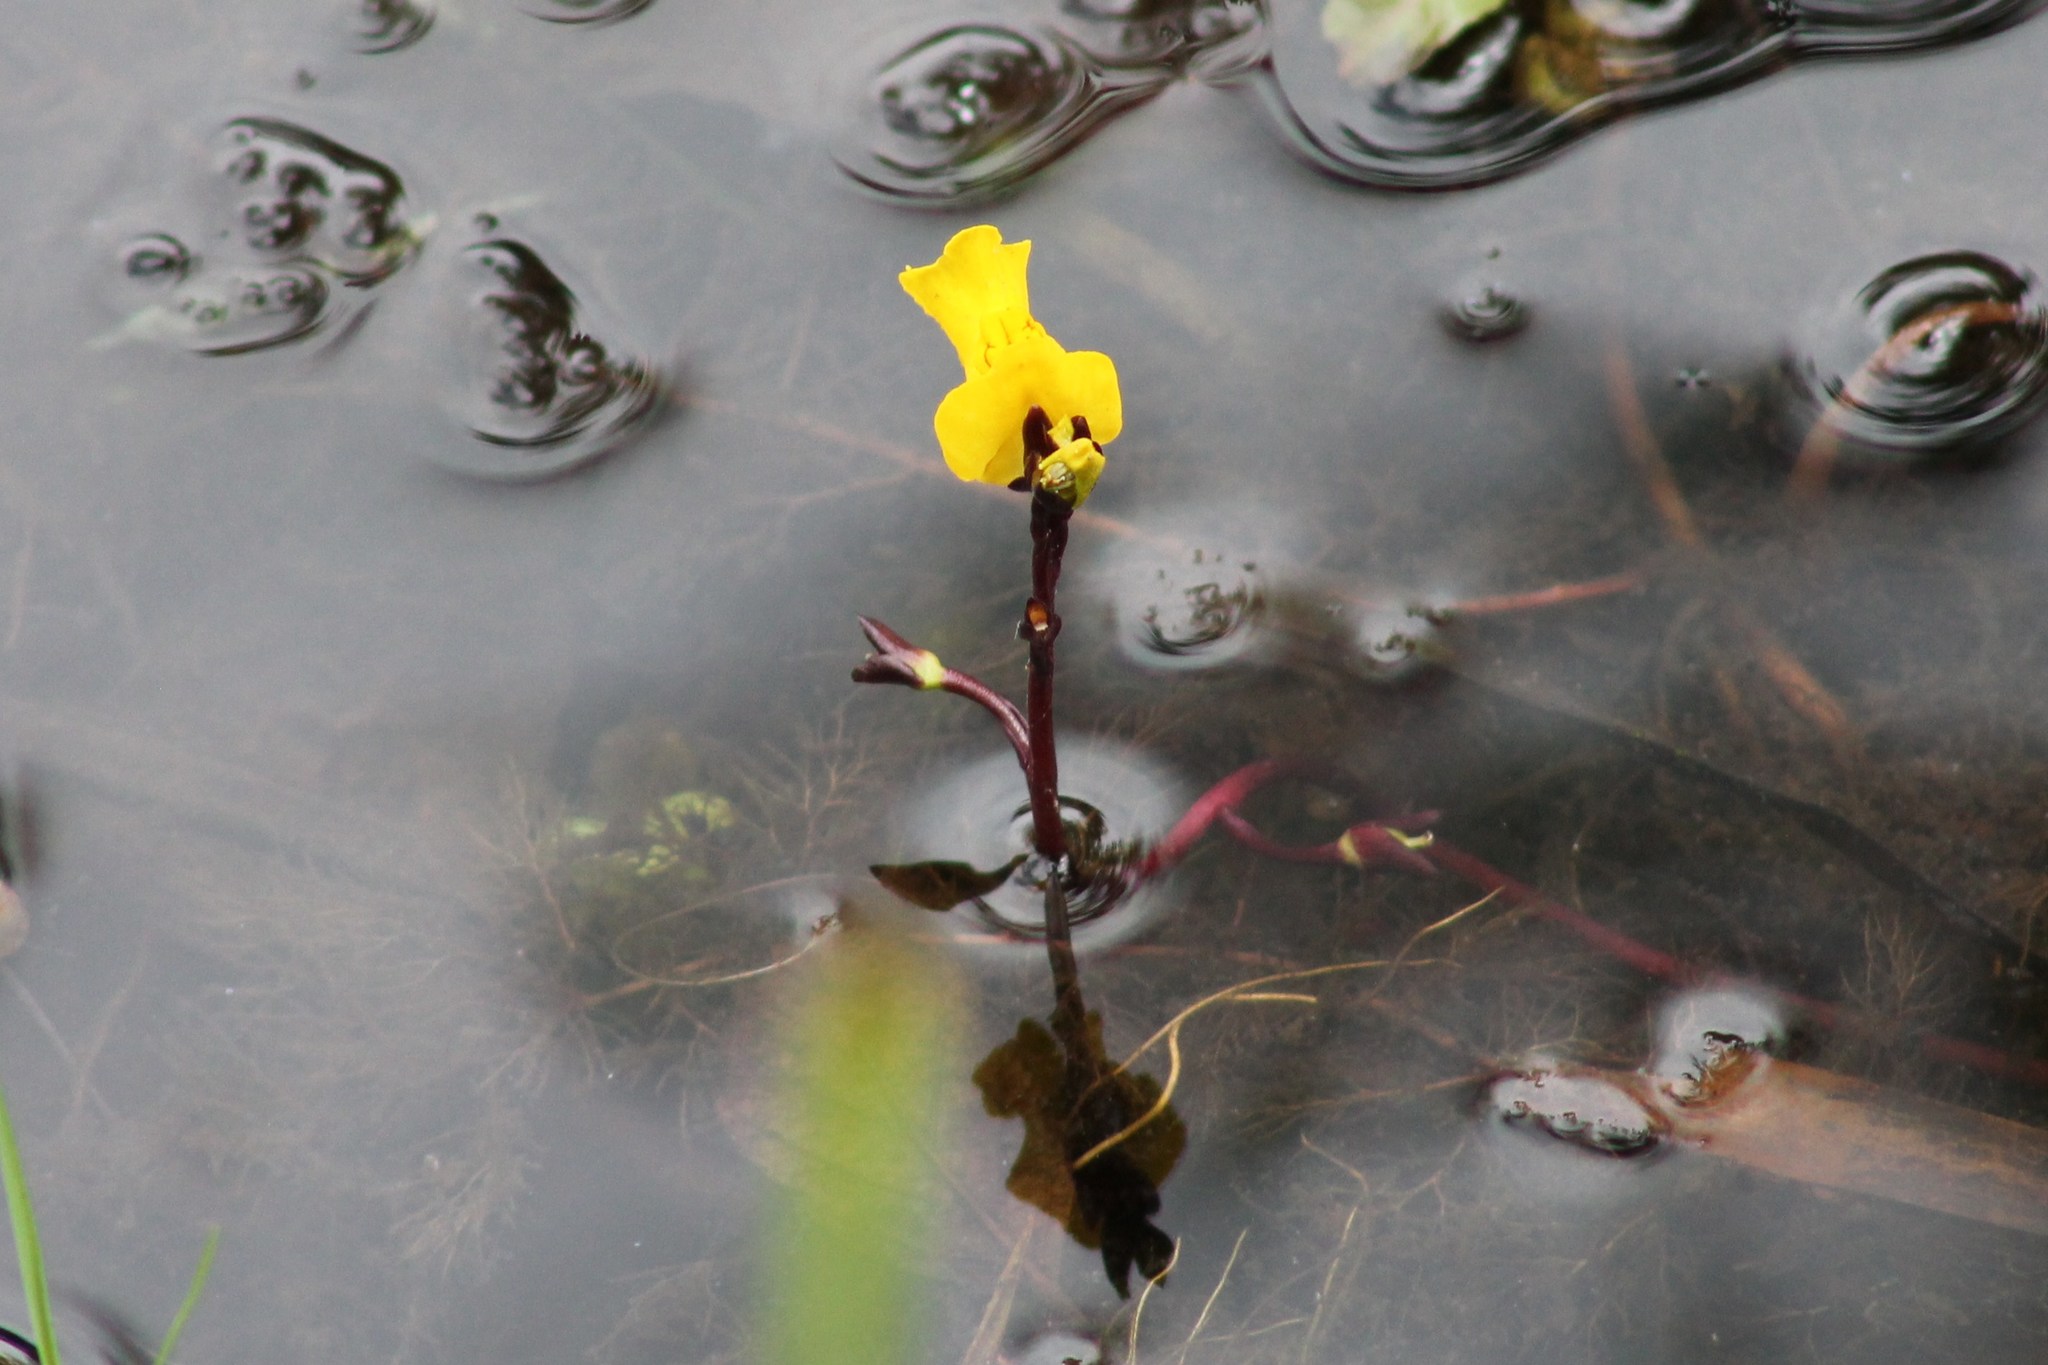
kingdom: Plantae
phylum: Tracheophyta
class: Magnoliopsida
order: Lamiales
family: Lentibulariaceae
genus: Utricularia
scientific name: Utricularia vulgaris
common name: Greater bladderwort
